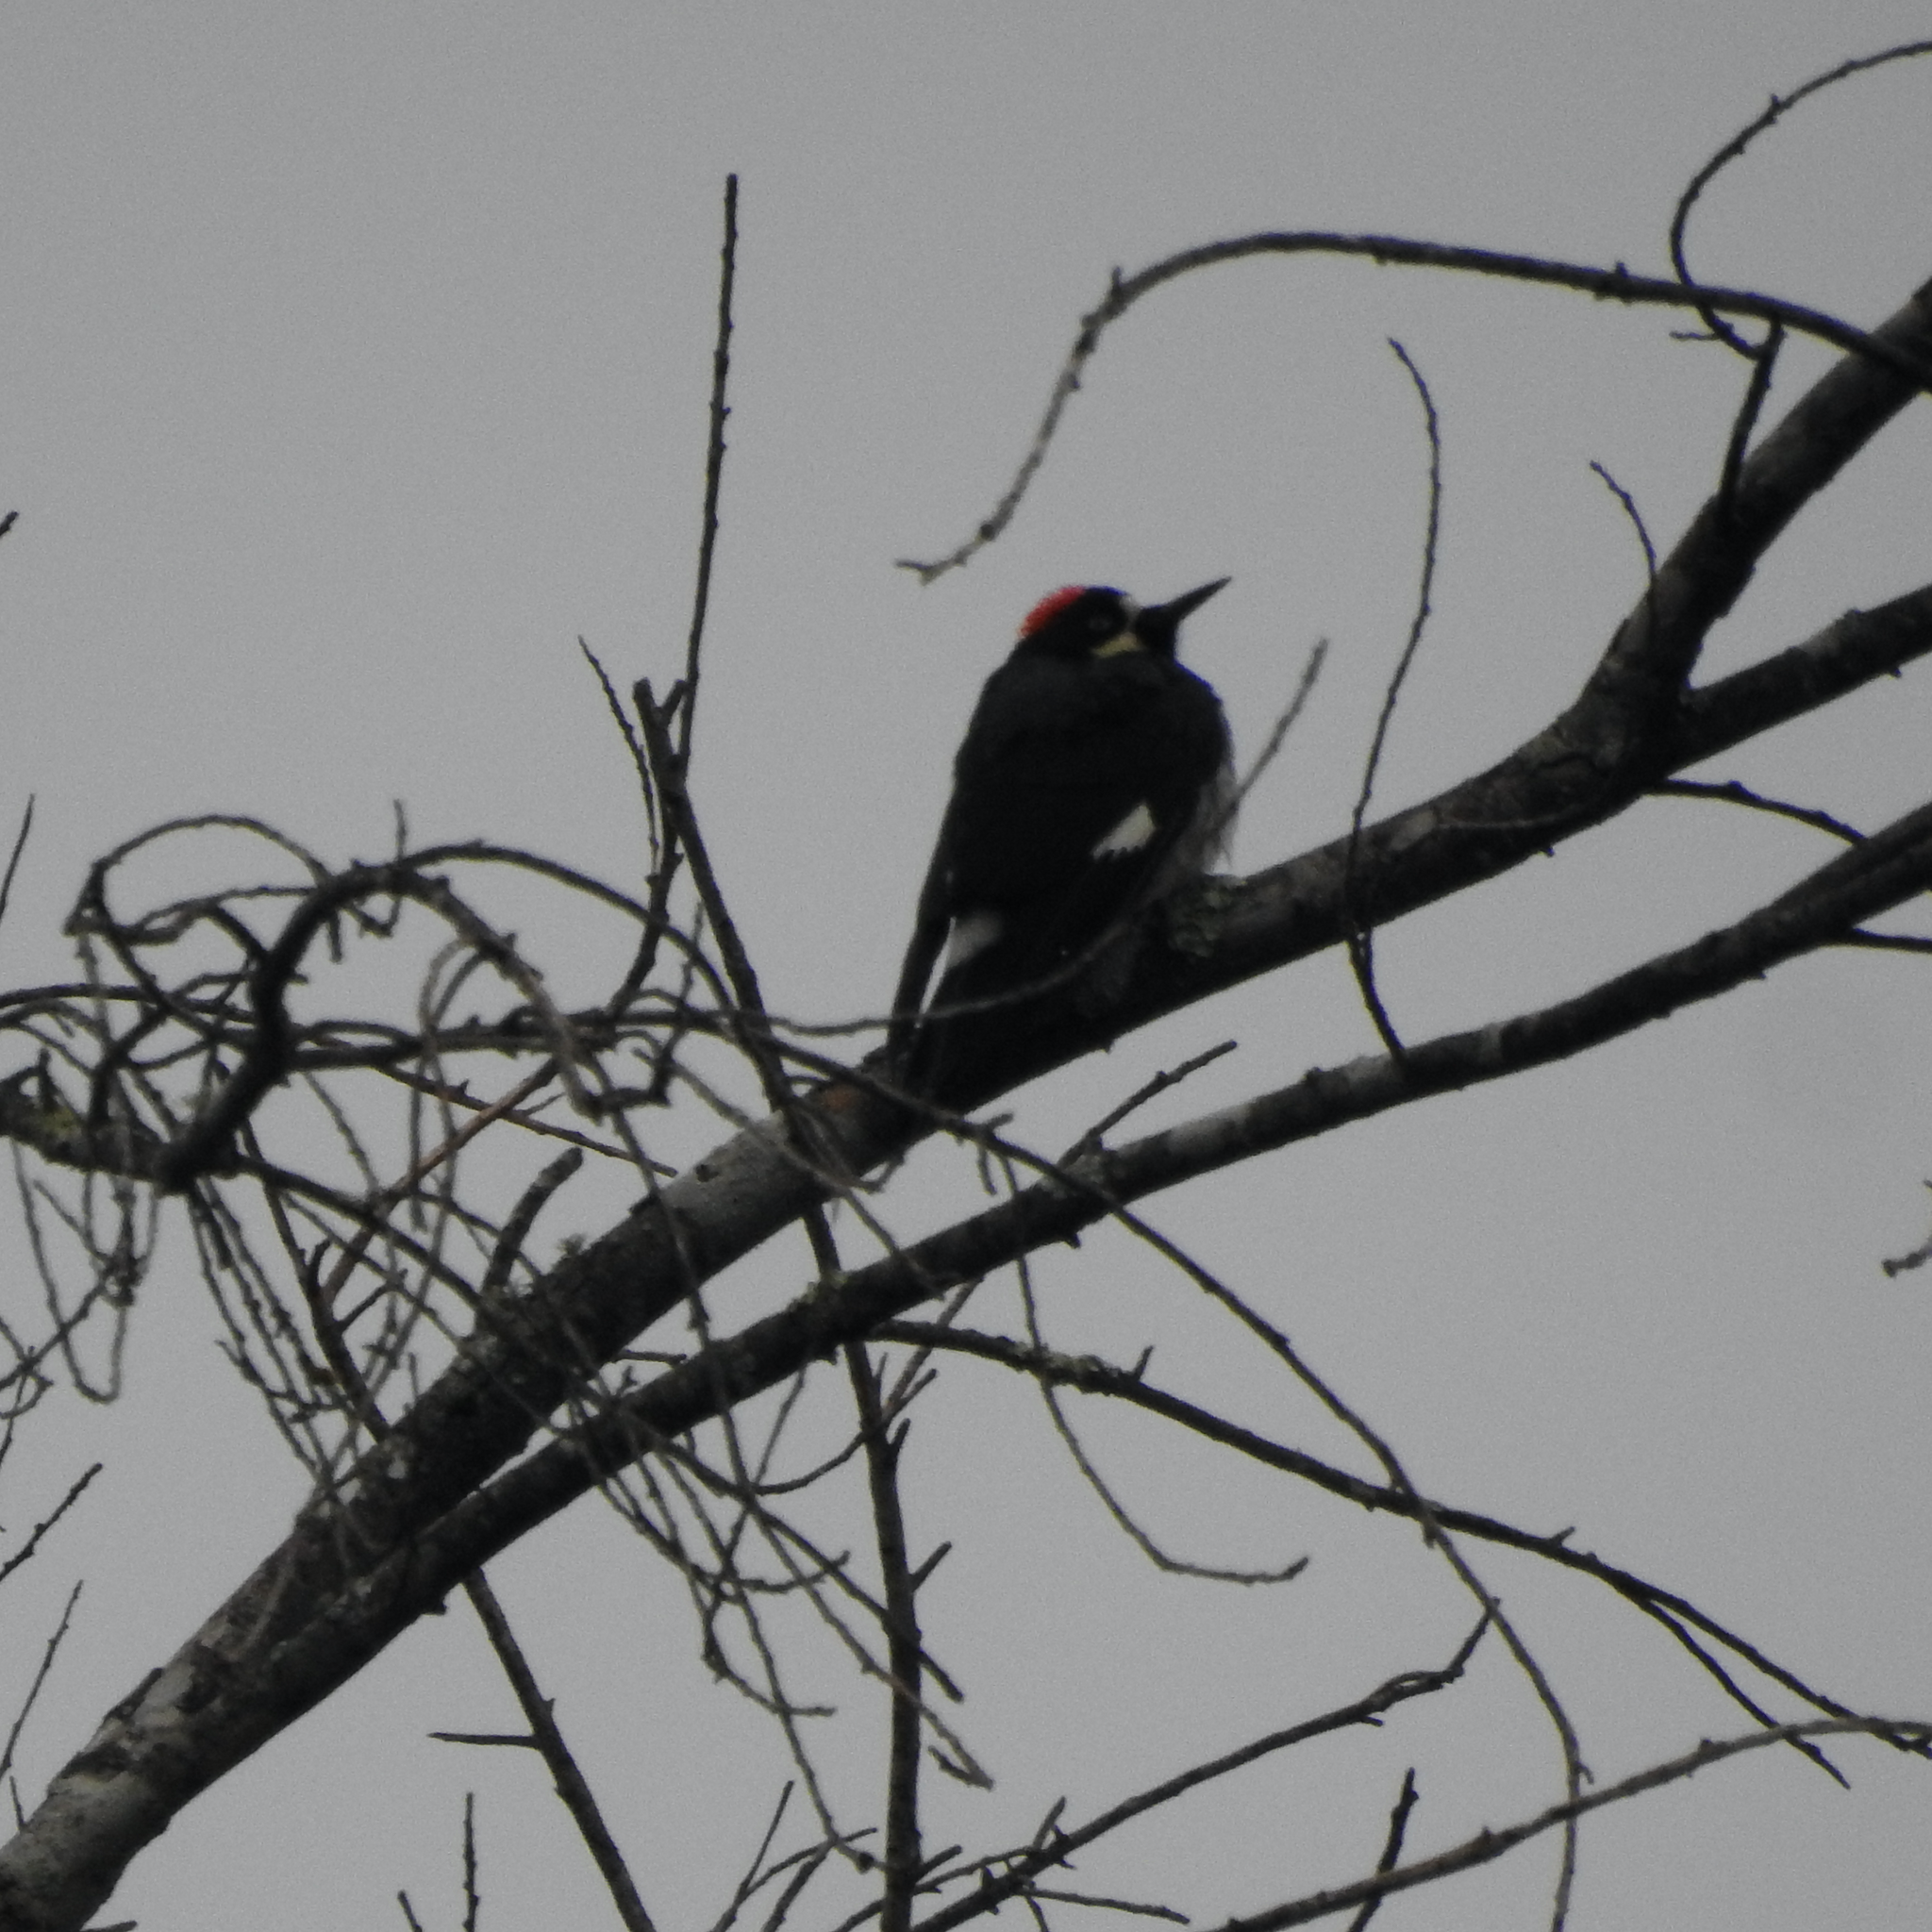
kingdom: Animalia
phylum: Chordata
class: Aves
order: Piciformes
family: Picidae
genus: Melanerpes
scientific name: Melanerpes formicivorus
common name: Acorn woodpecker
